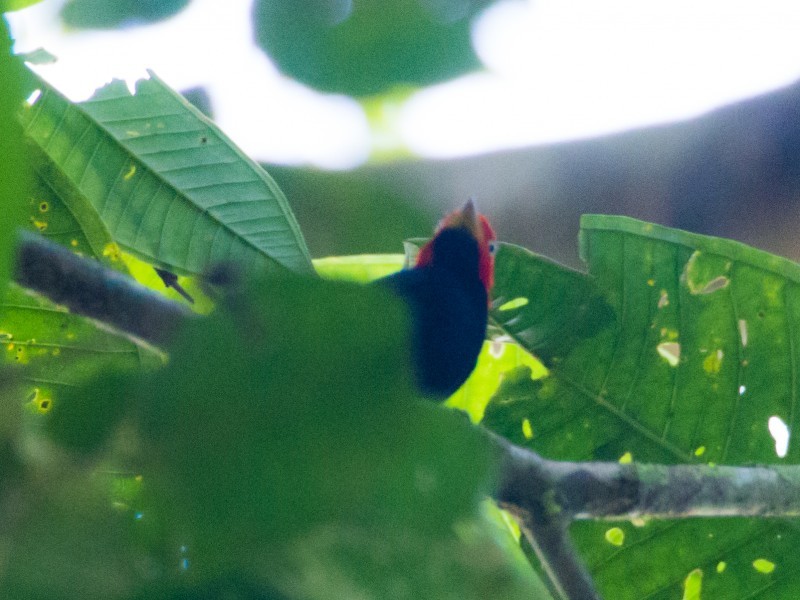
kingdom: Animalia
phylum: Chordata
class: Aves
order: Passeriformes
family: Pipridae
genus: Pipra
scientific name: Pipra mentalis
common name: Red-capped manakin
